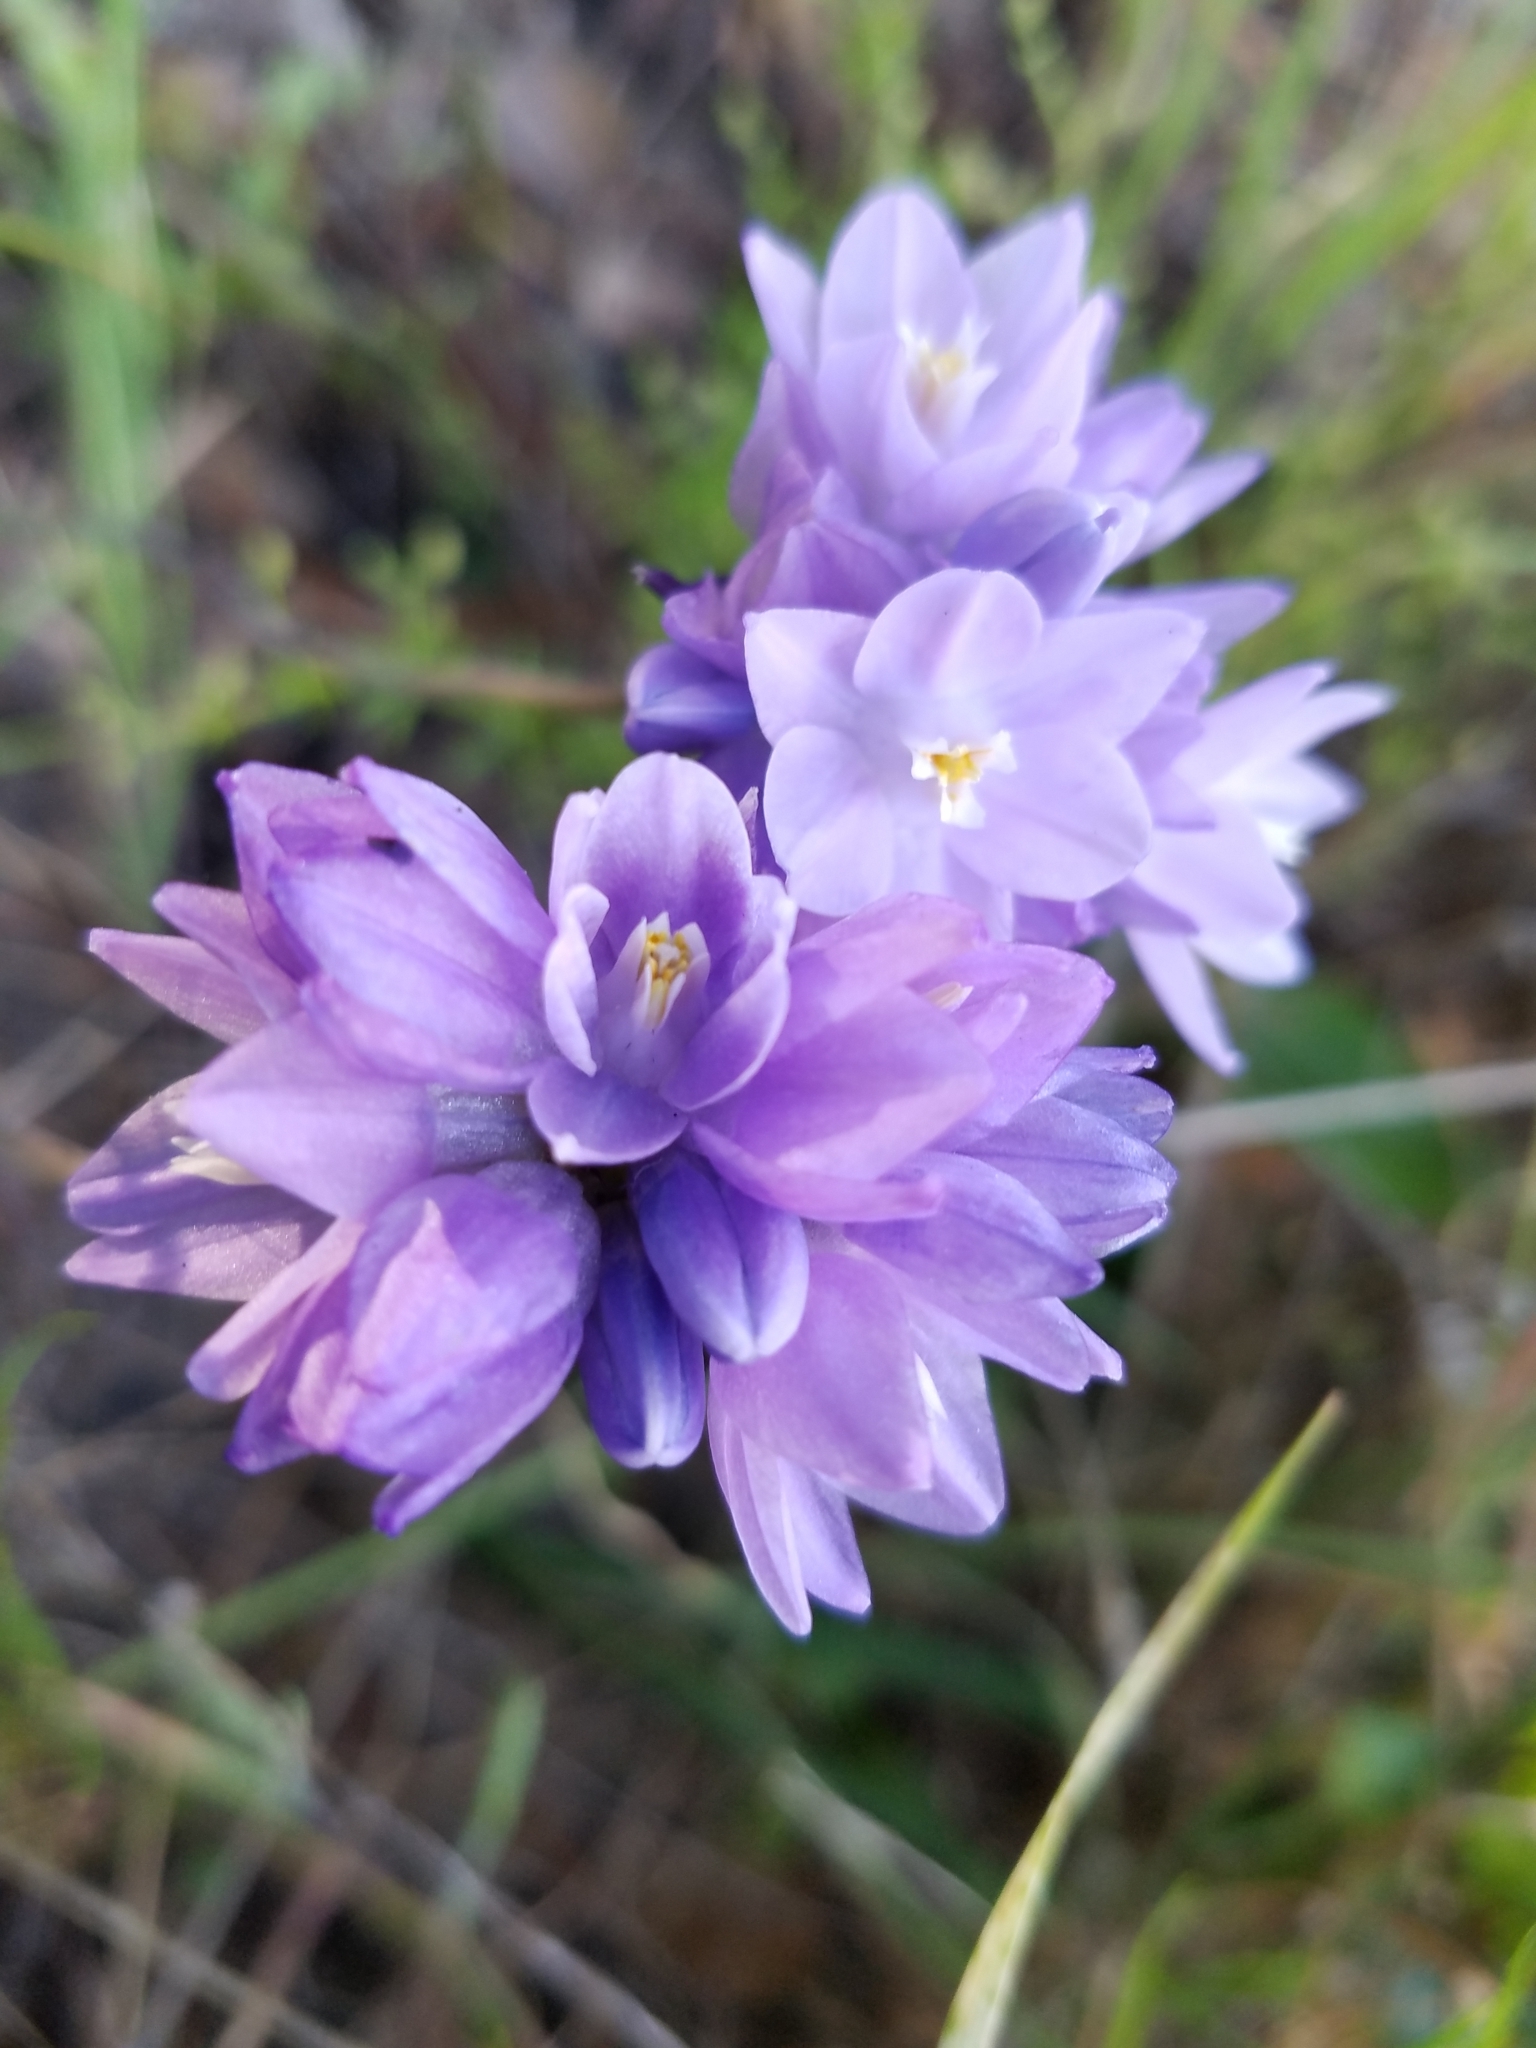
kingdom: Plantae
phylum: Tracheophyta
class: Liliopsida
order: Asparagales
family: Asparagaceae
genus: Dipterostemon
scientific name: Dipterostemon capitatus
